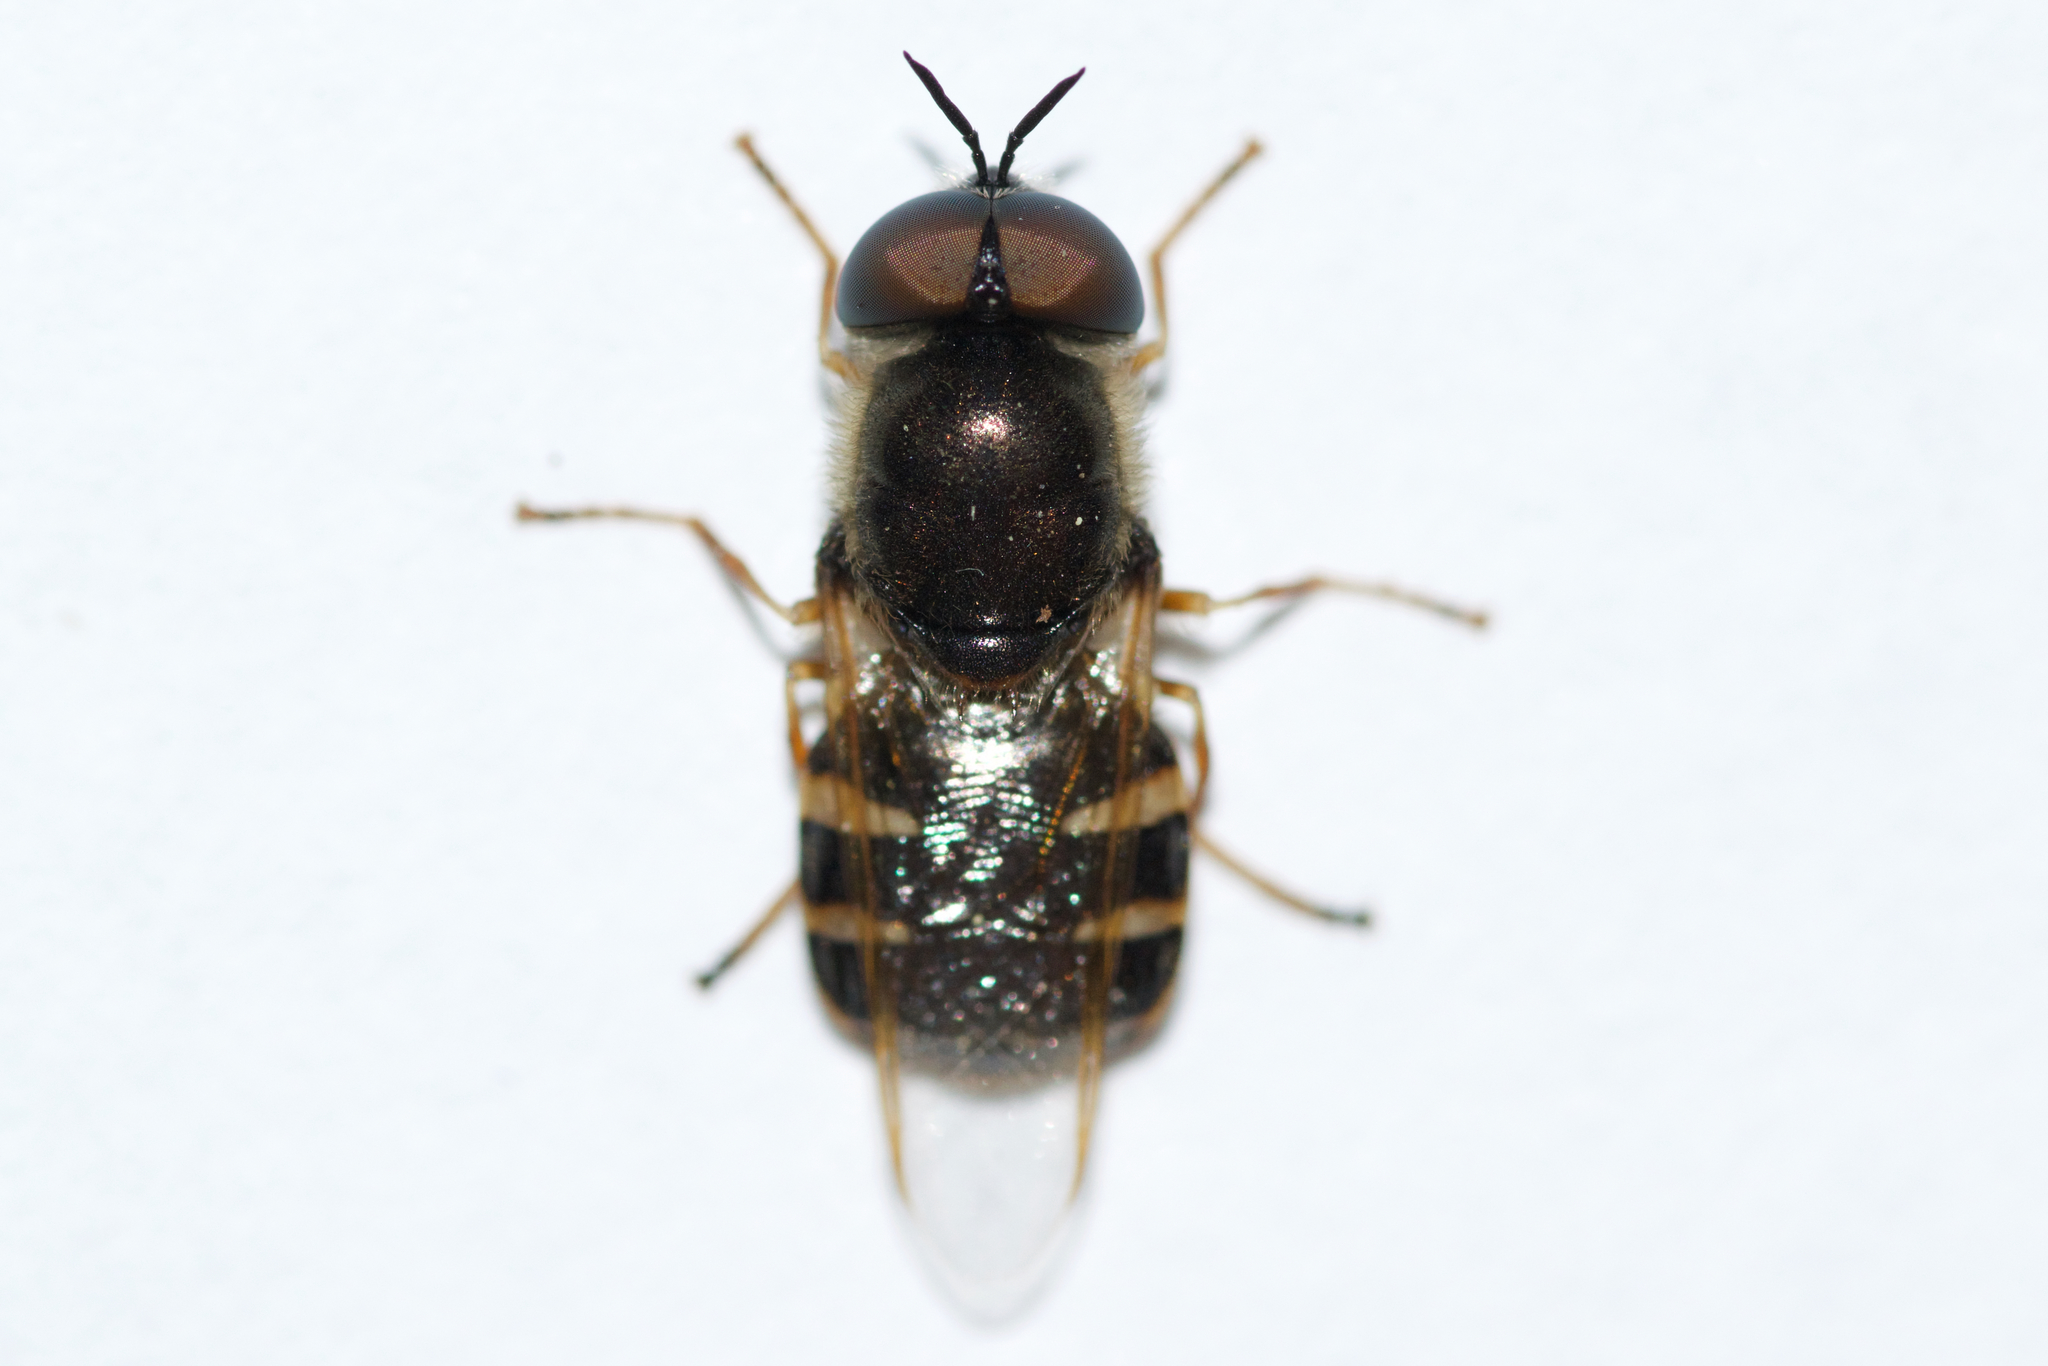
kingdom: Animalia
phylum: Arthropoda
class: Insecta
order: Diptera
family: Stratiomyidae
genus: Odontomyia
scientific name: Odontomyia pubescens
